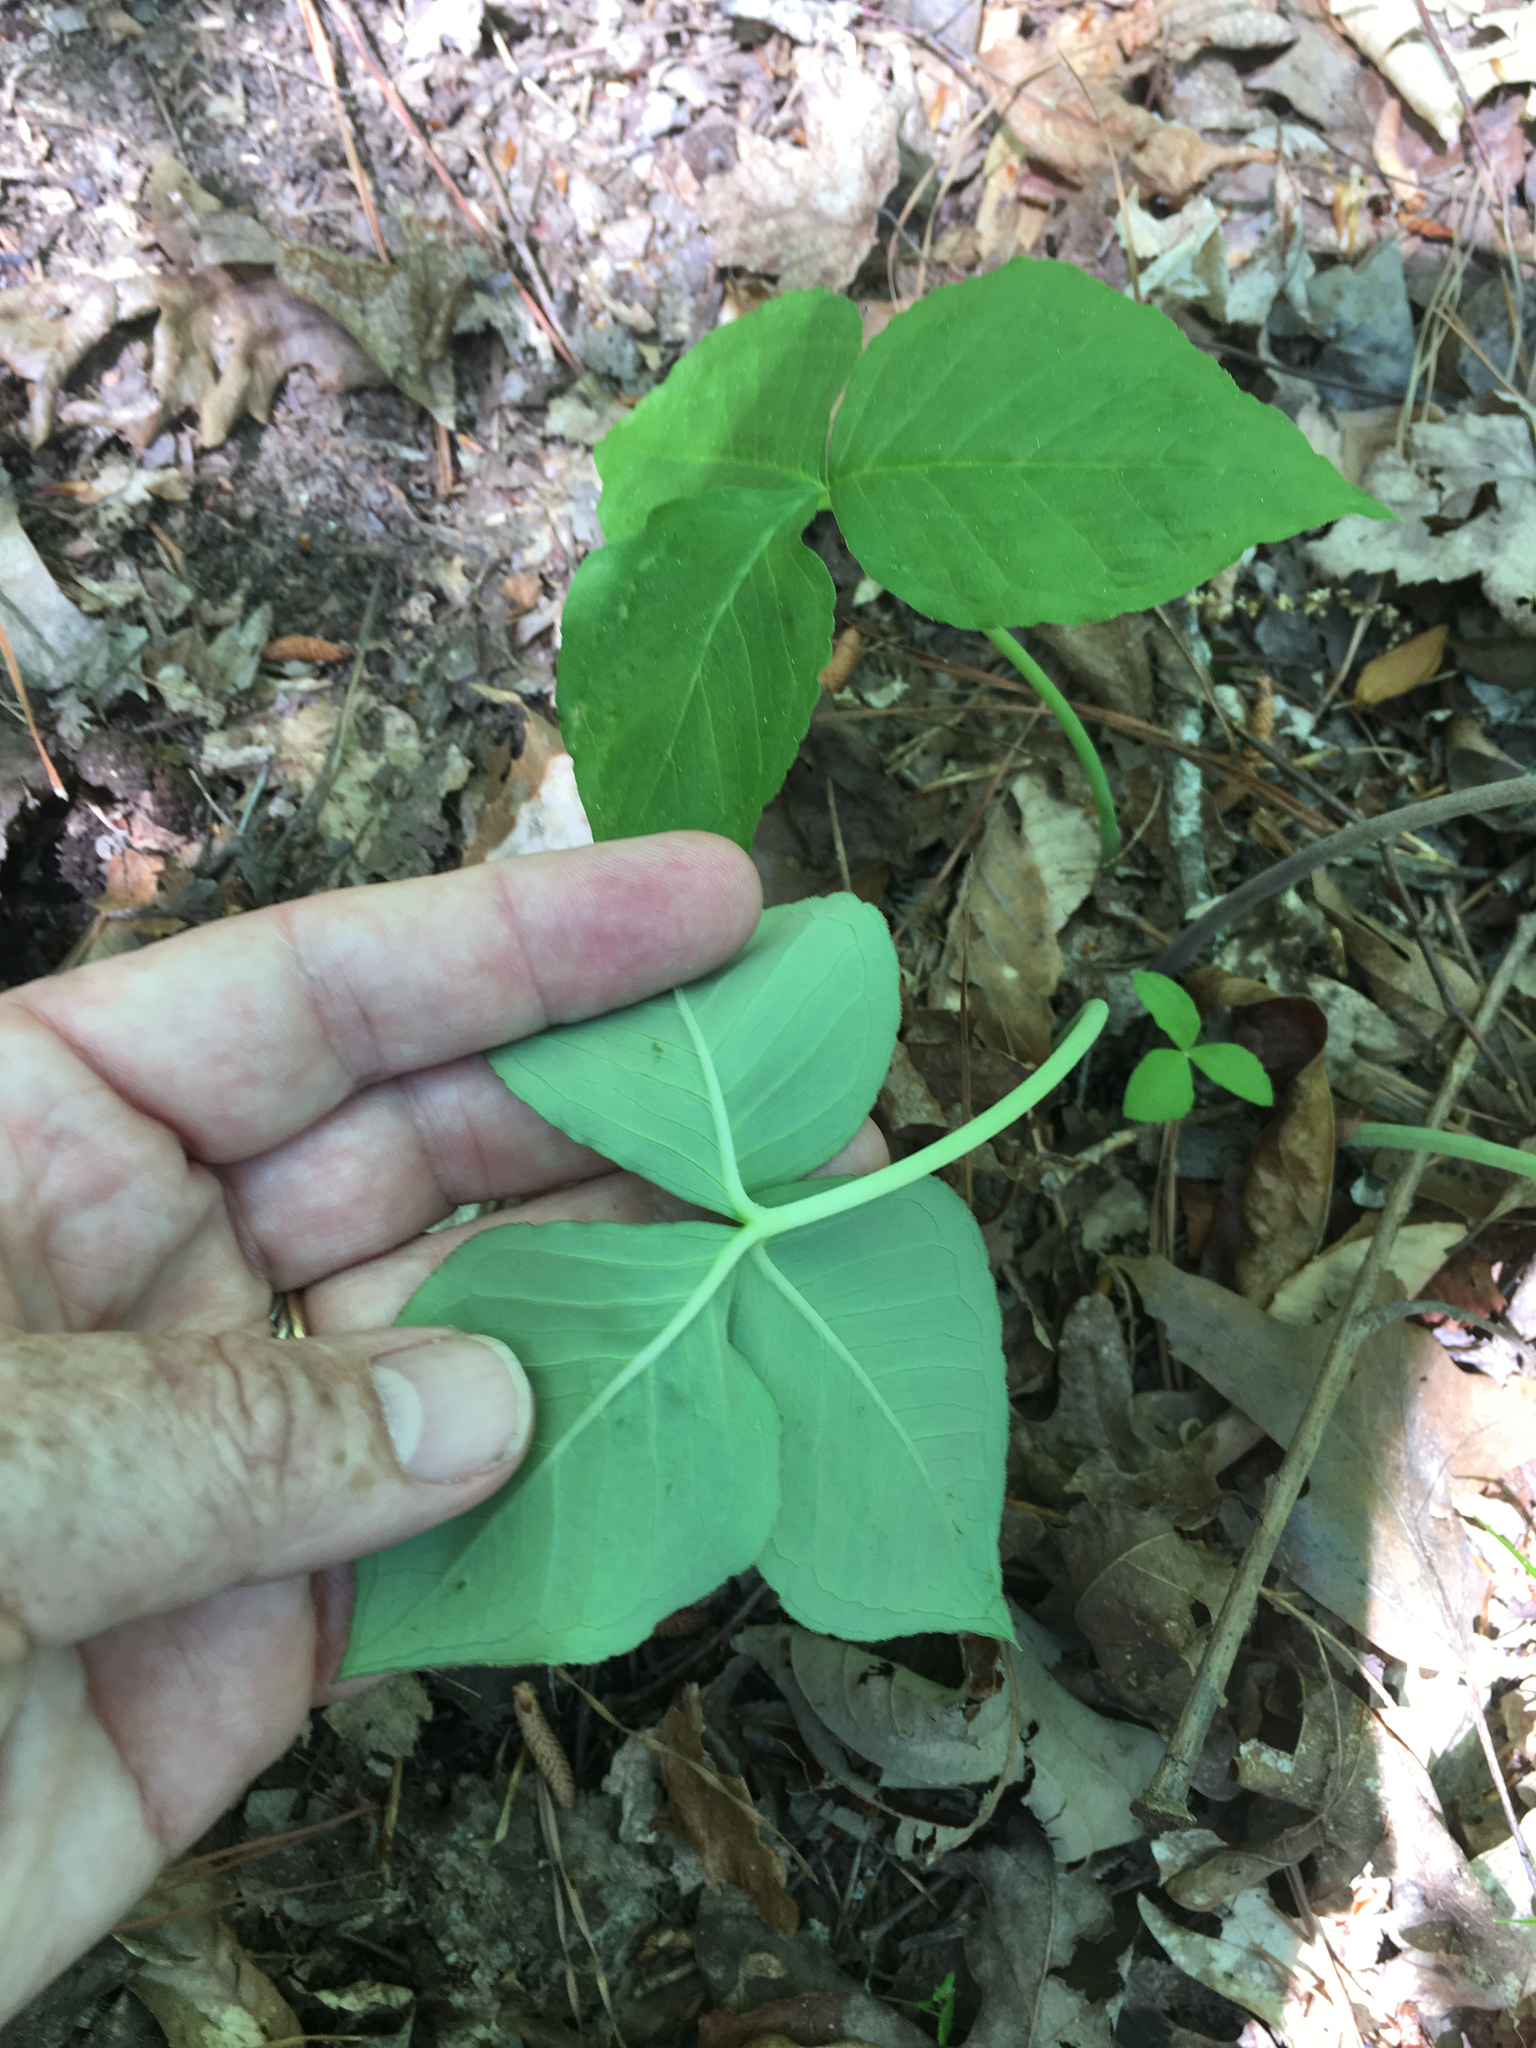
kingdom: Plantae
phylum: Tracheophyta
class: Liliopsida
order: Alismatales
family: Araceae
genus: Arisaema
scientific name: Arisaema triphyllum
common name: Jack-in-the-pulpit
